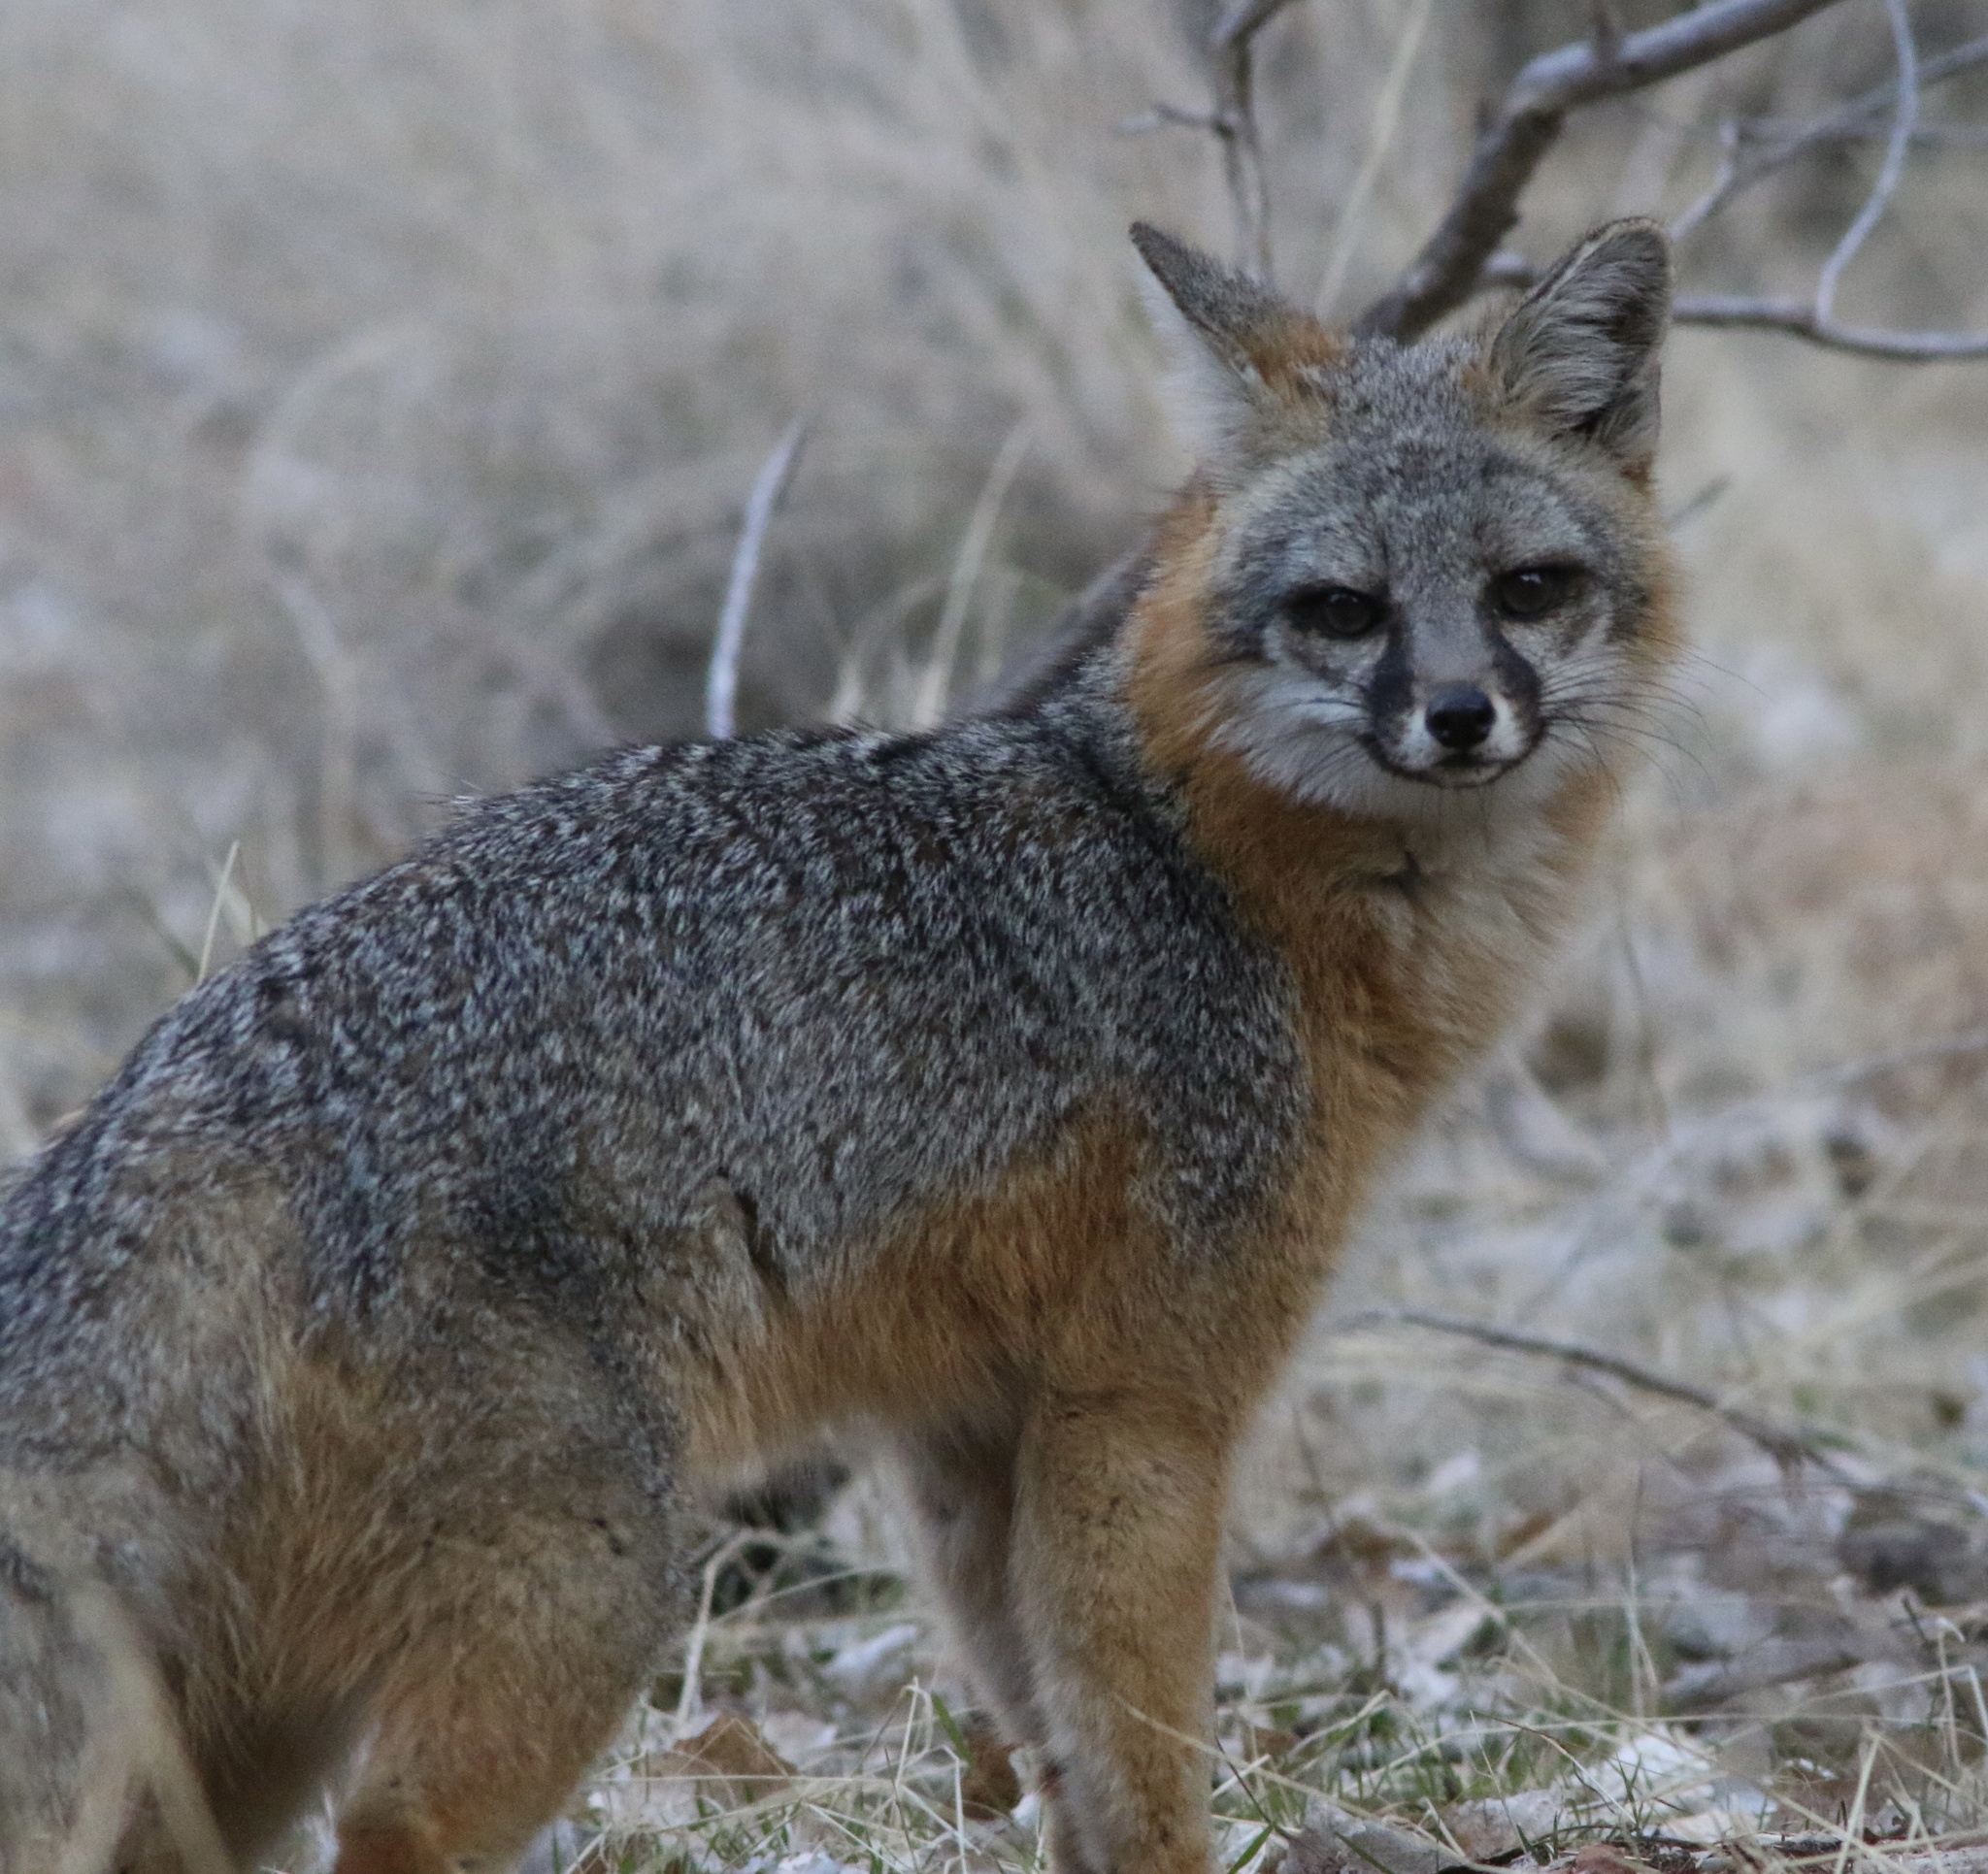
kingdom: Animalia
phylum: Chordata
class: Mammalia
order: Carnivora
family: Canidae
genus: Urocyon
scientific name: Urocyon cinereoargenteus
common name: Gray fox
